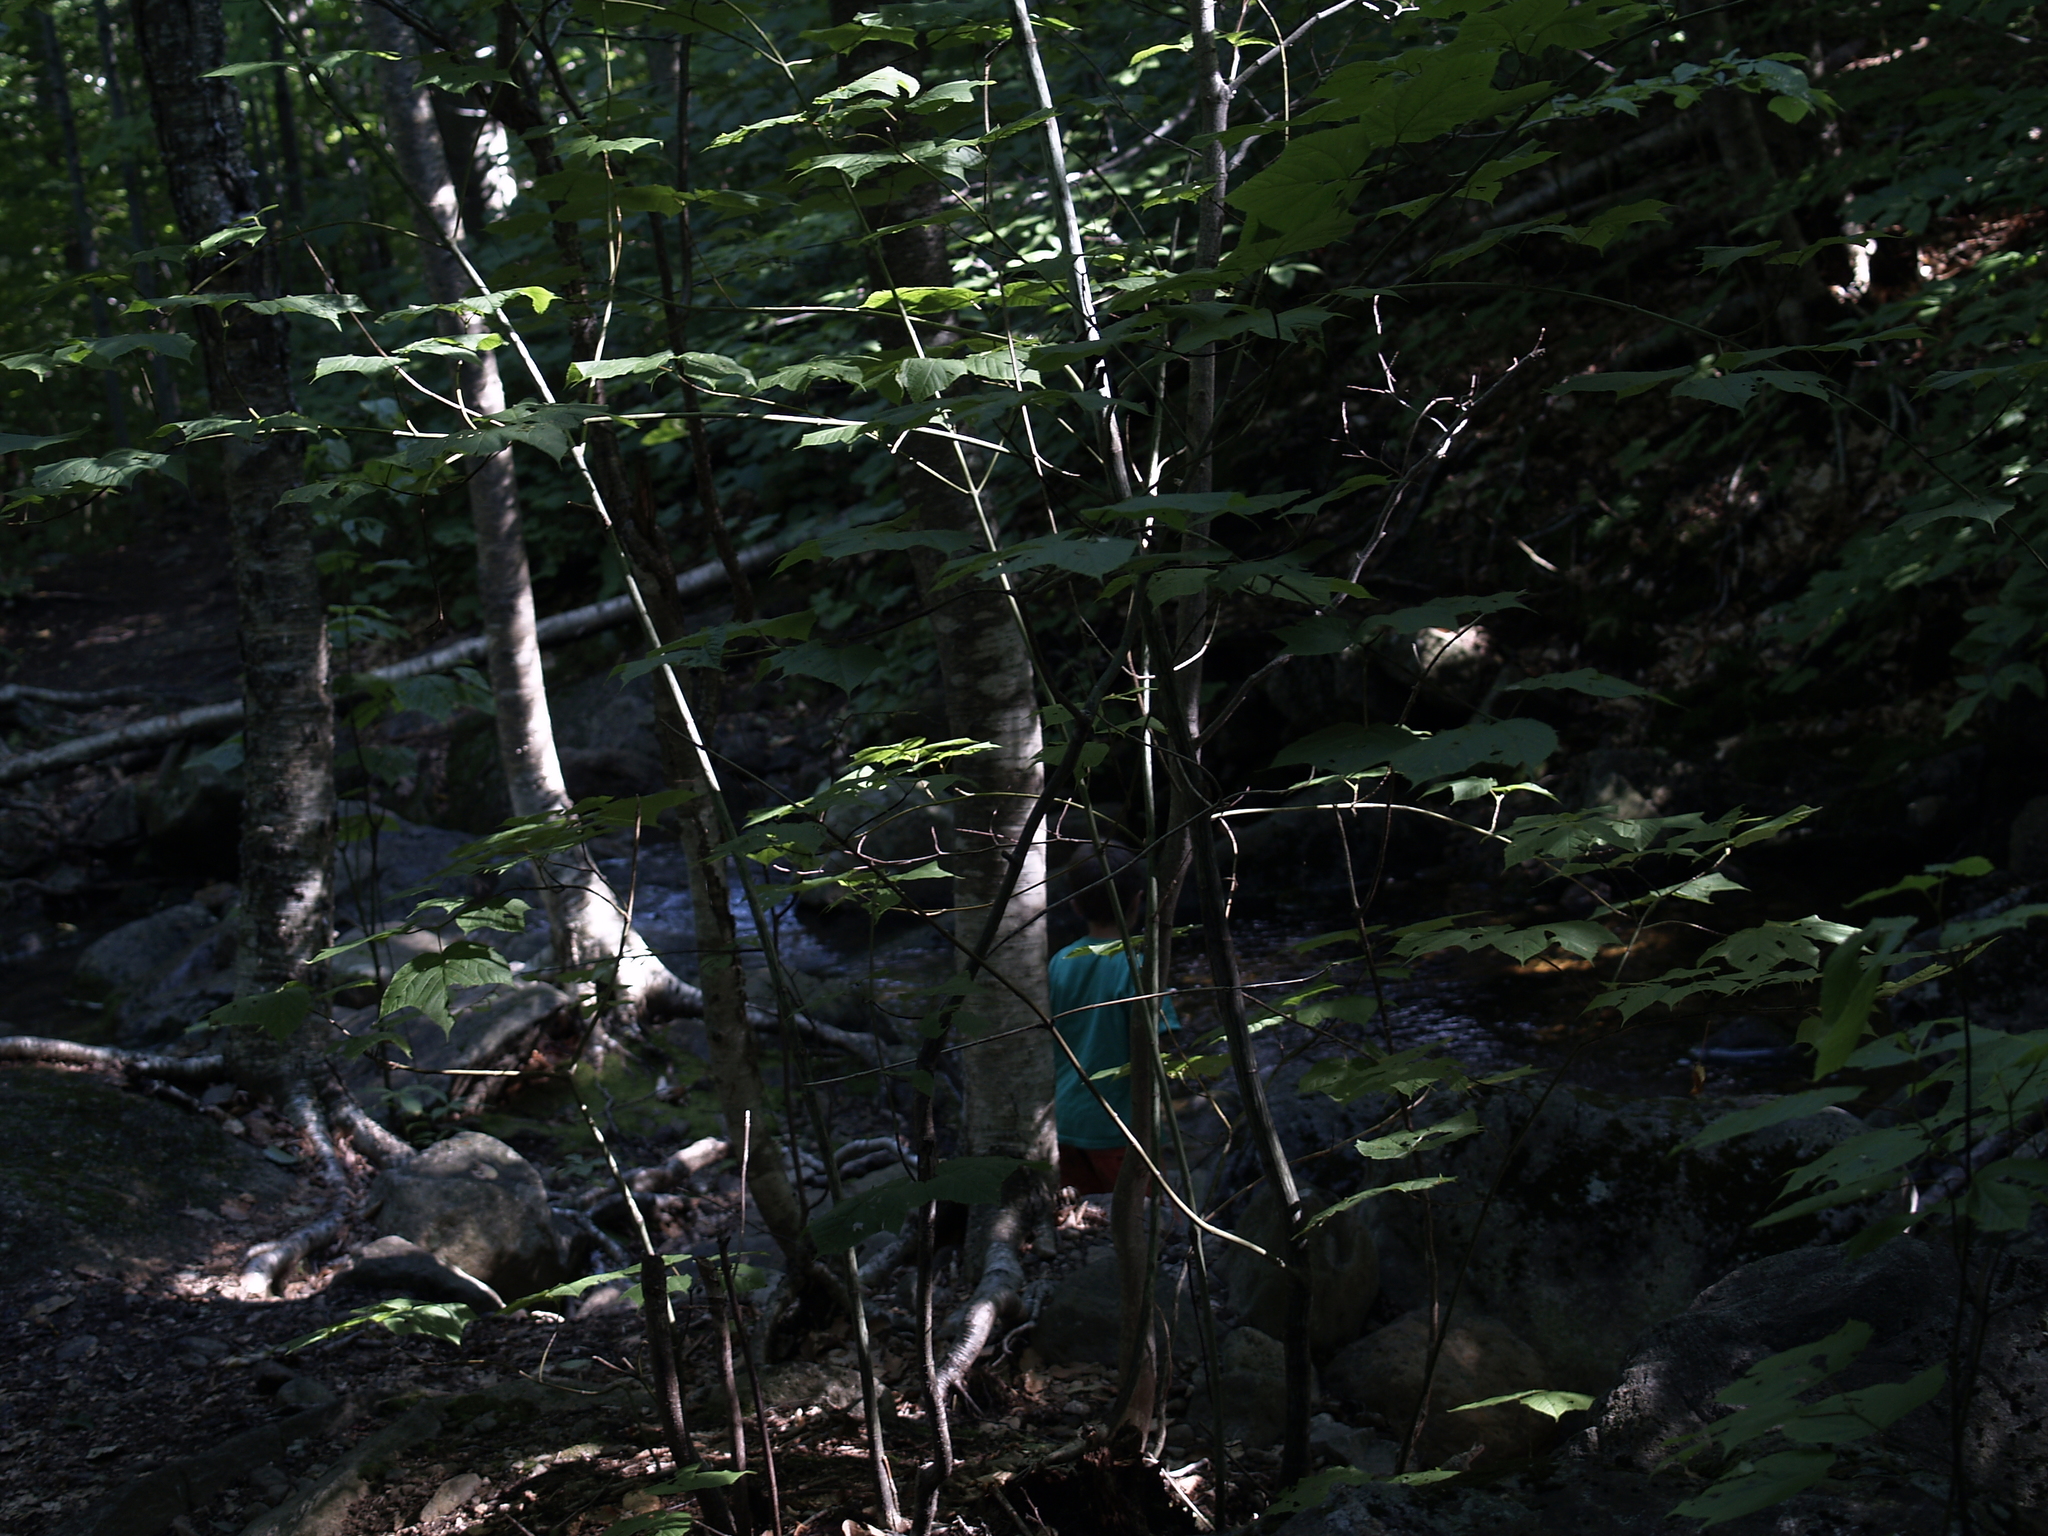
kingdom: Plantae
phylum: Tracheophyta
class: Magnoliopsida
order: Sapindales
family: Sapindaceae
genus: Acer
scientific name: Acer pensylvanicum
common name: Moosewood
